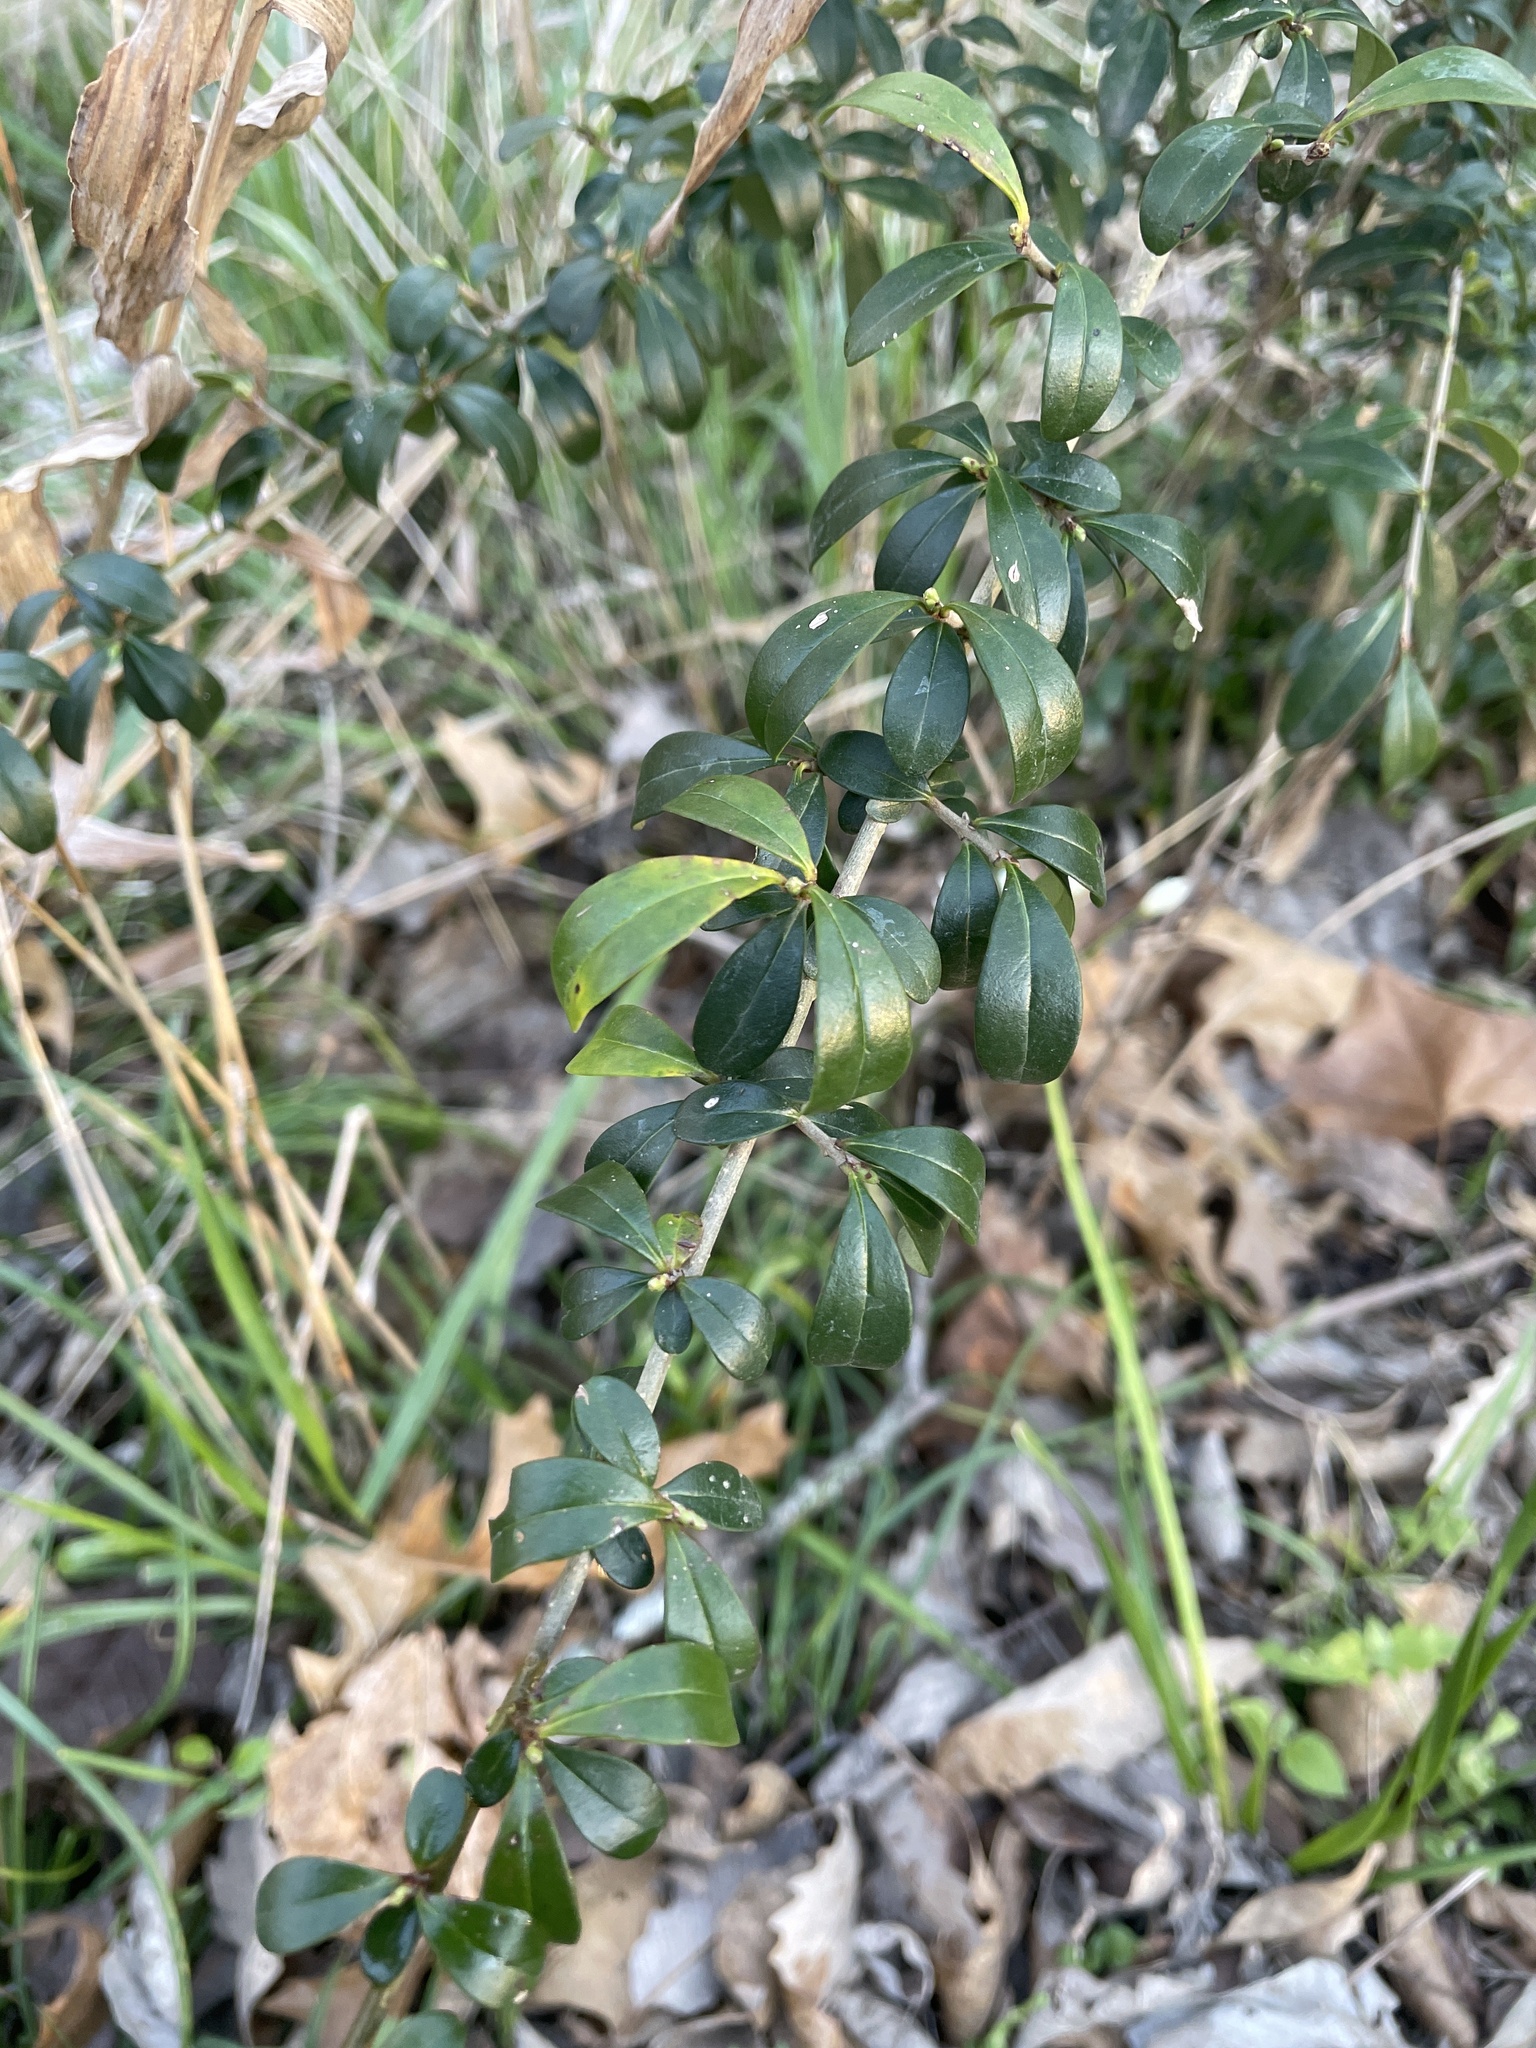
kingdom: Plantae
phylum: Tracheophyta
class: Magnoliopsida
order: Lamiales
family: Oleaceae
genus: Ligustrum
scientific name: Ligustrum quihoui
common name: Waxyleaf privet
